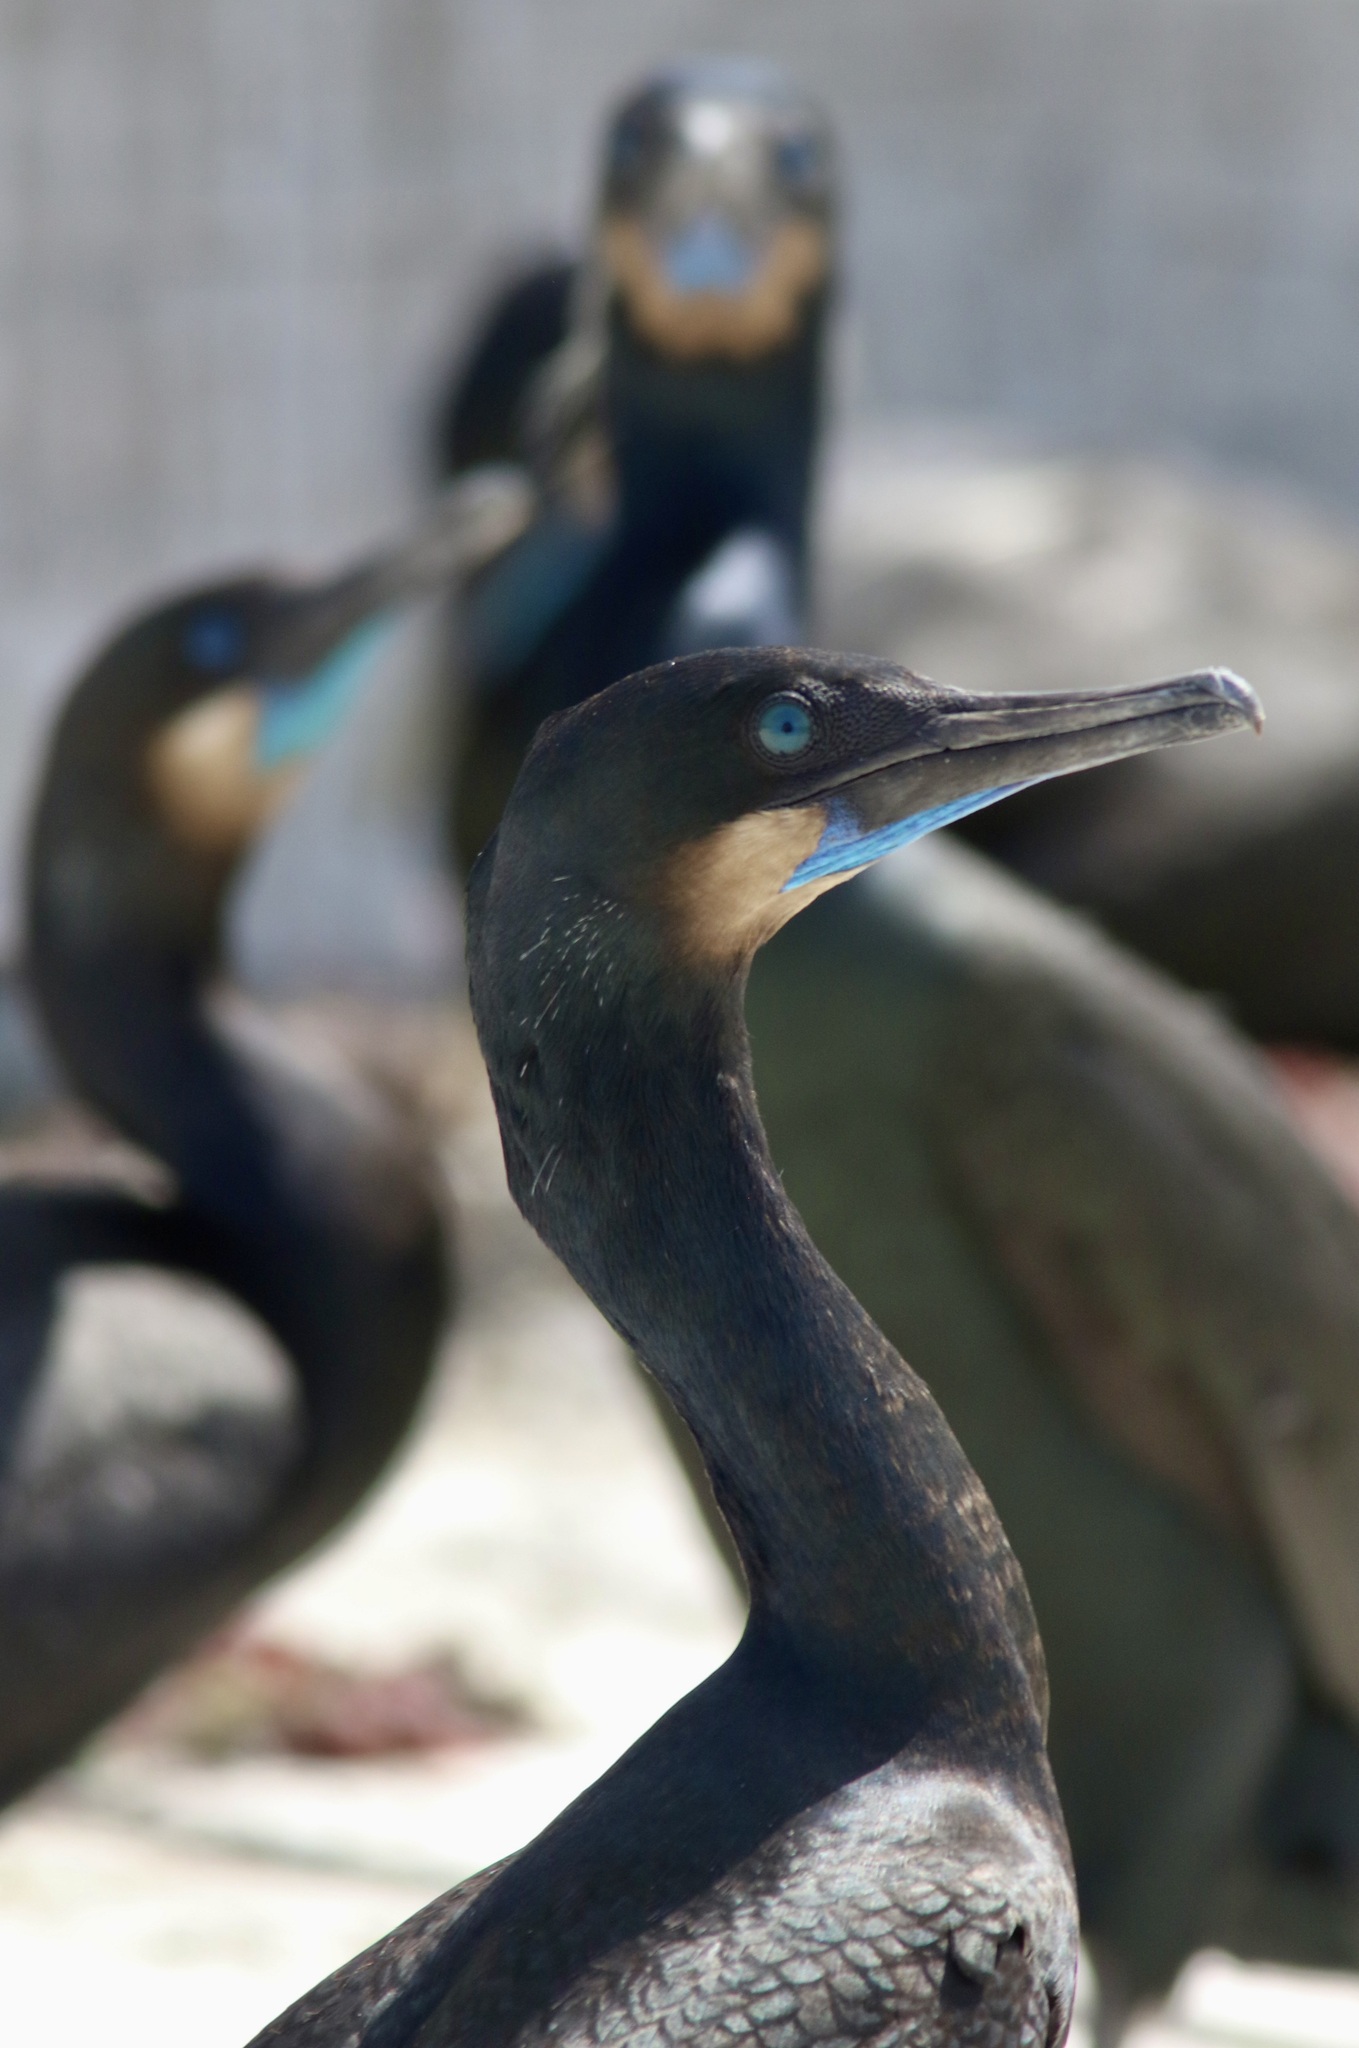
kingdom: Animalia
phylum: Chordata
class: Aves
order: Suliformes
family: Phalacrocoracidae
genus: Urile
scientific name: Urile penicillatus
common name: Brandt's cormorant
